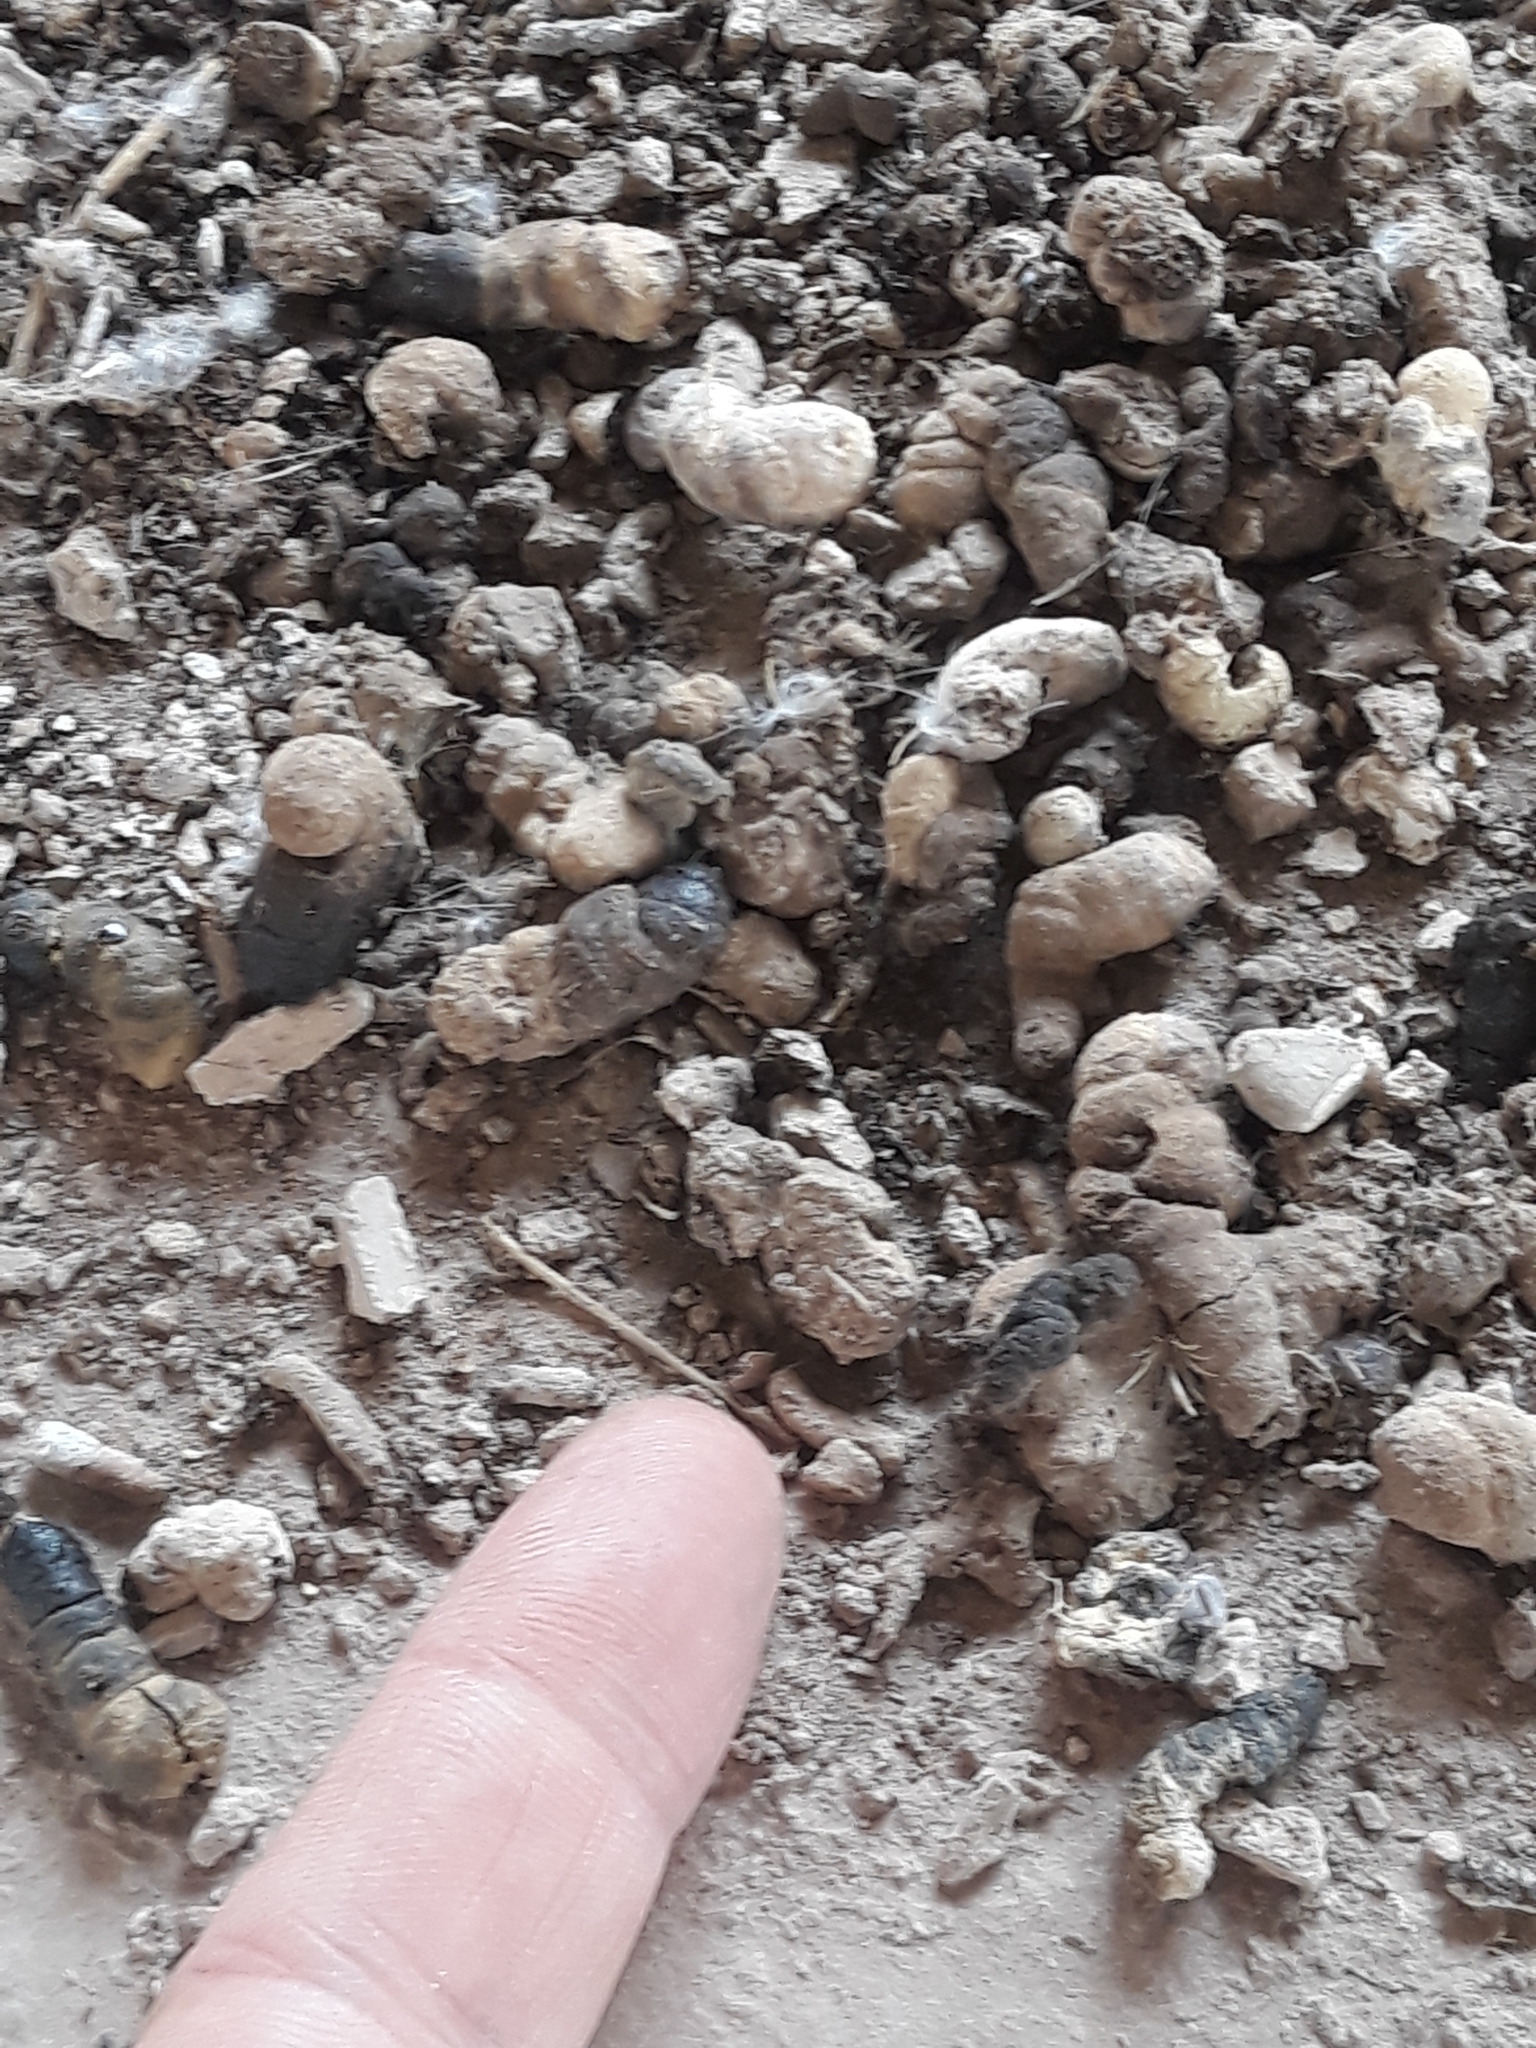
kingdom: Animalia
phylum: Chordata
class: Aves
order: Apodiformes
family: Apodidae
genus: Apus
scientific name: Apus pallidus
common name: Pallid swift
